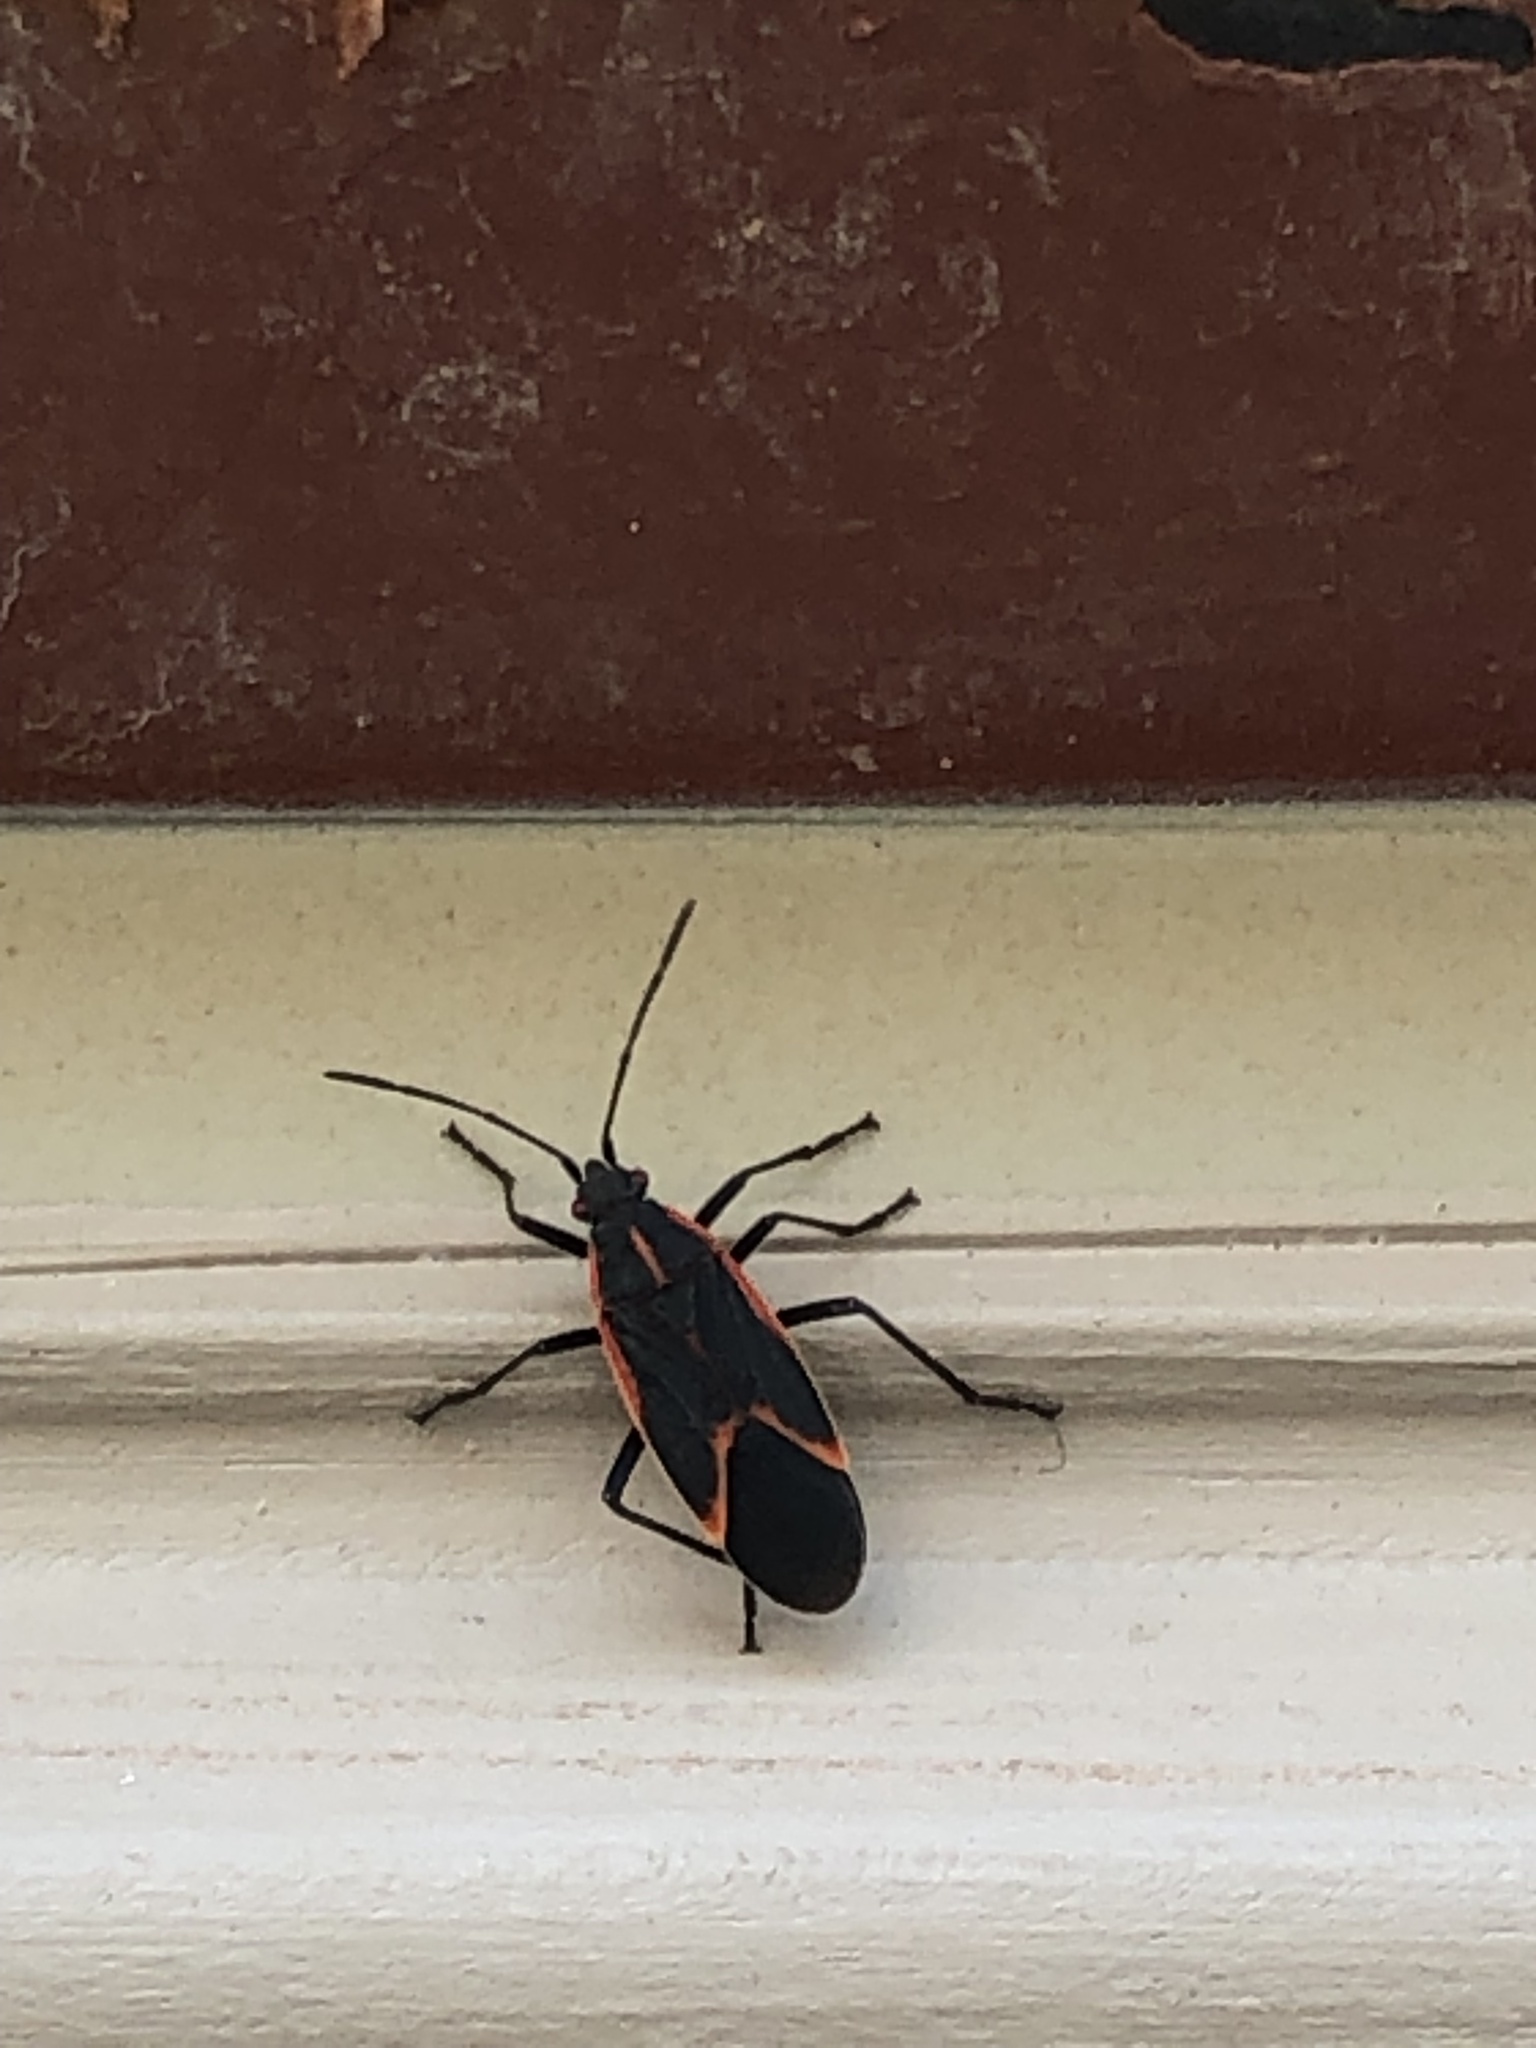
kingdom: Animalia
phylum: Arthropoda
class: Insecta
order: Hemiptera
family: Rhopalidae
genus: Boisea
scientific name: Boisea trivittata
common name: Boxelder bug
